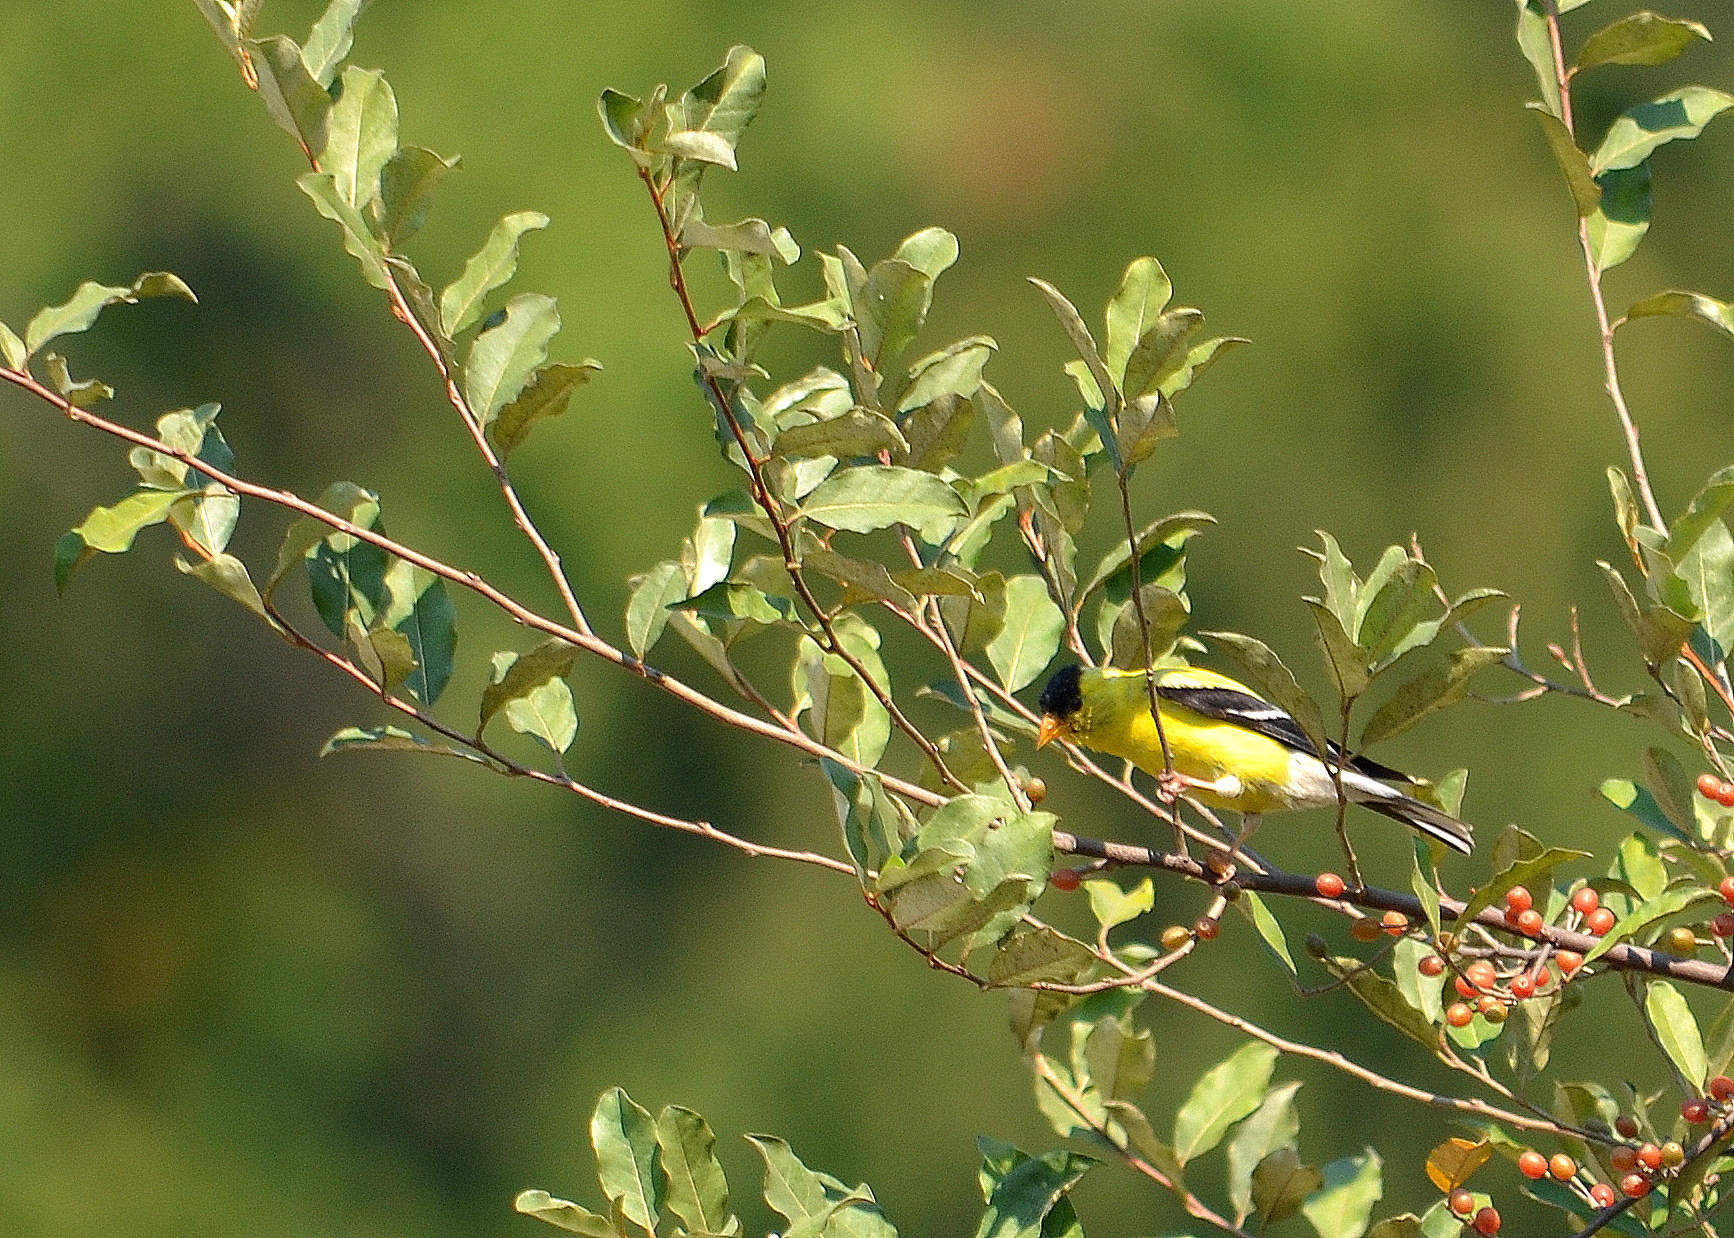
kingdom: Animalia
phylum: Chordata
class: Aves
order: Passeriformes
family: Fringillidae
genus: Spinus
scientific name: Spinus tristis
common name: American goldfinch
